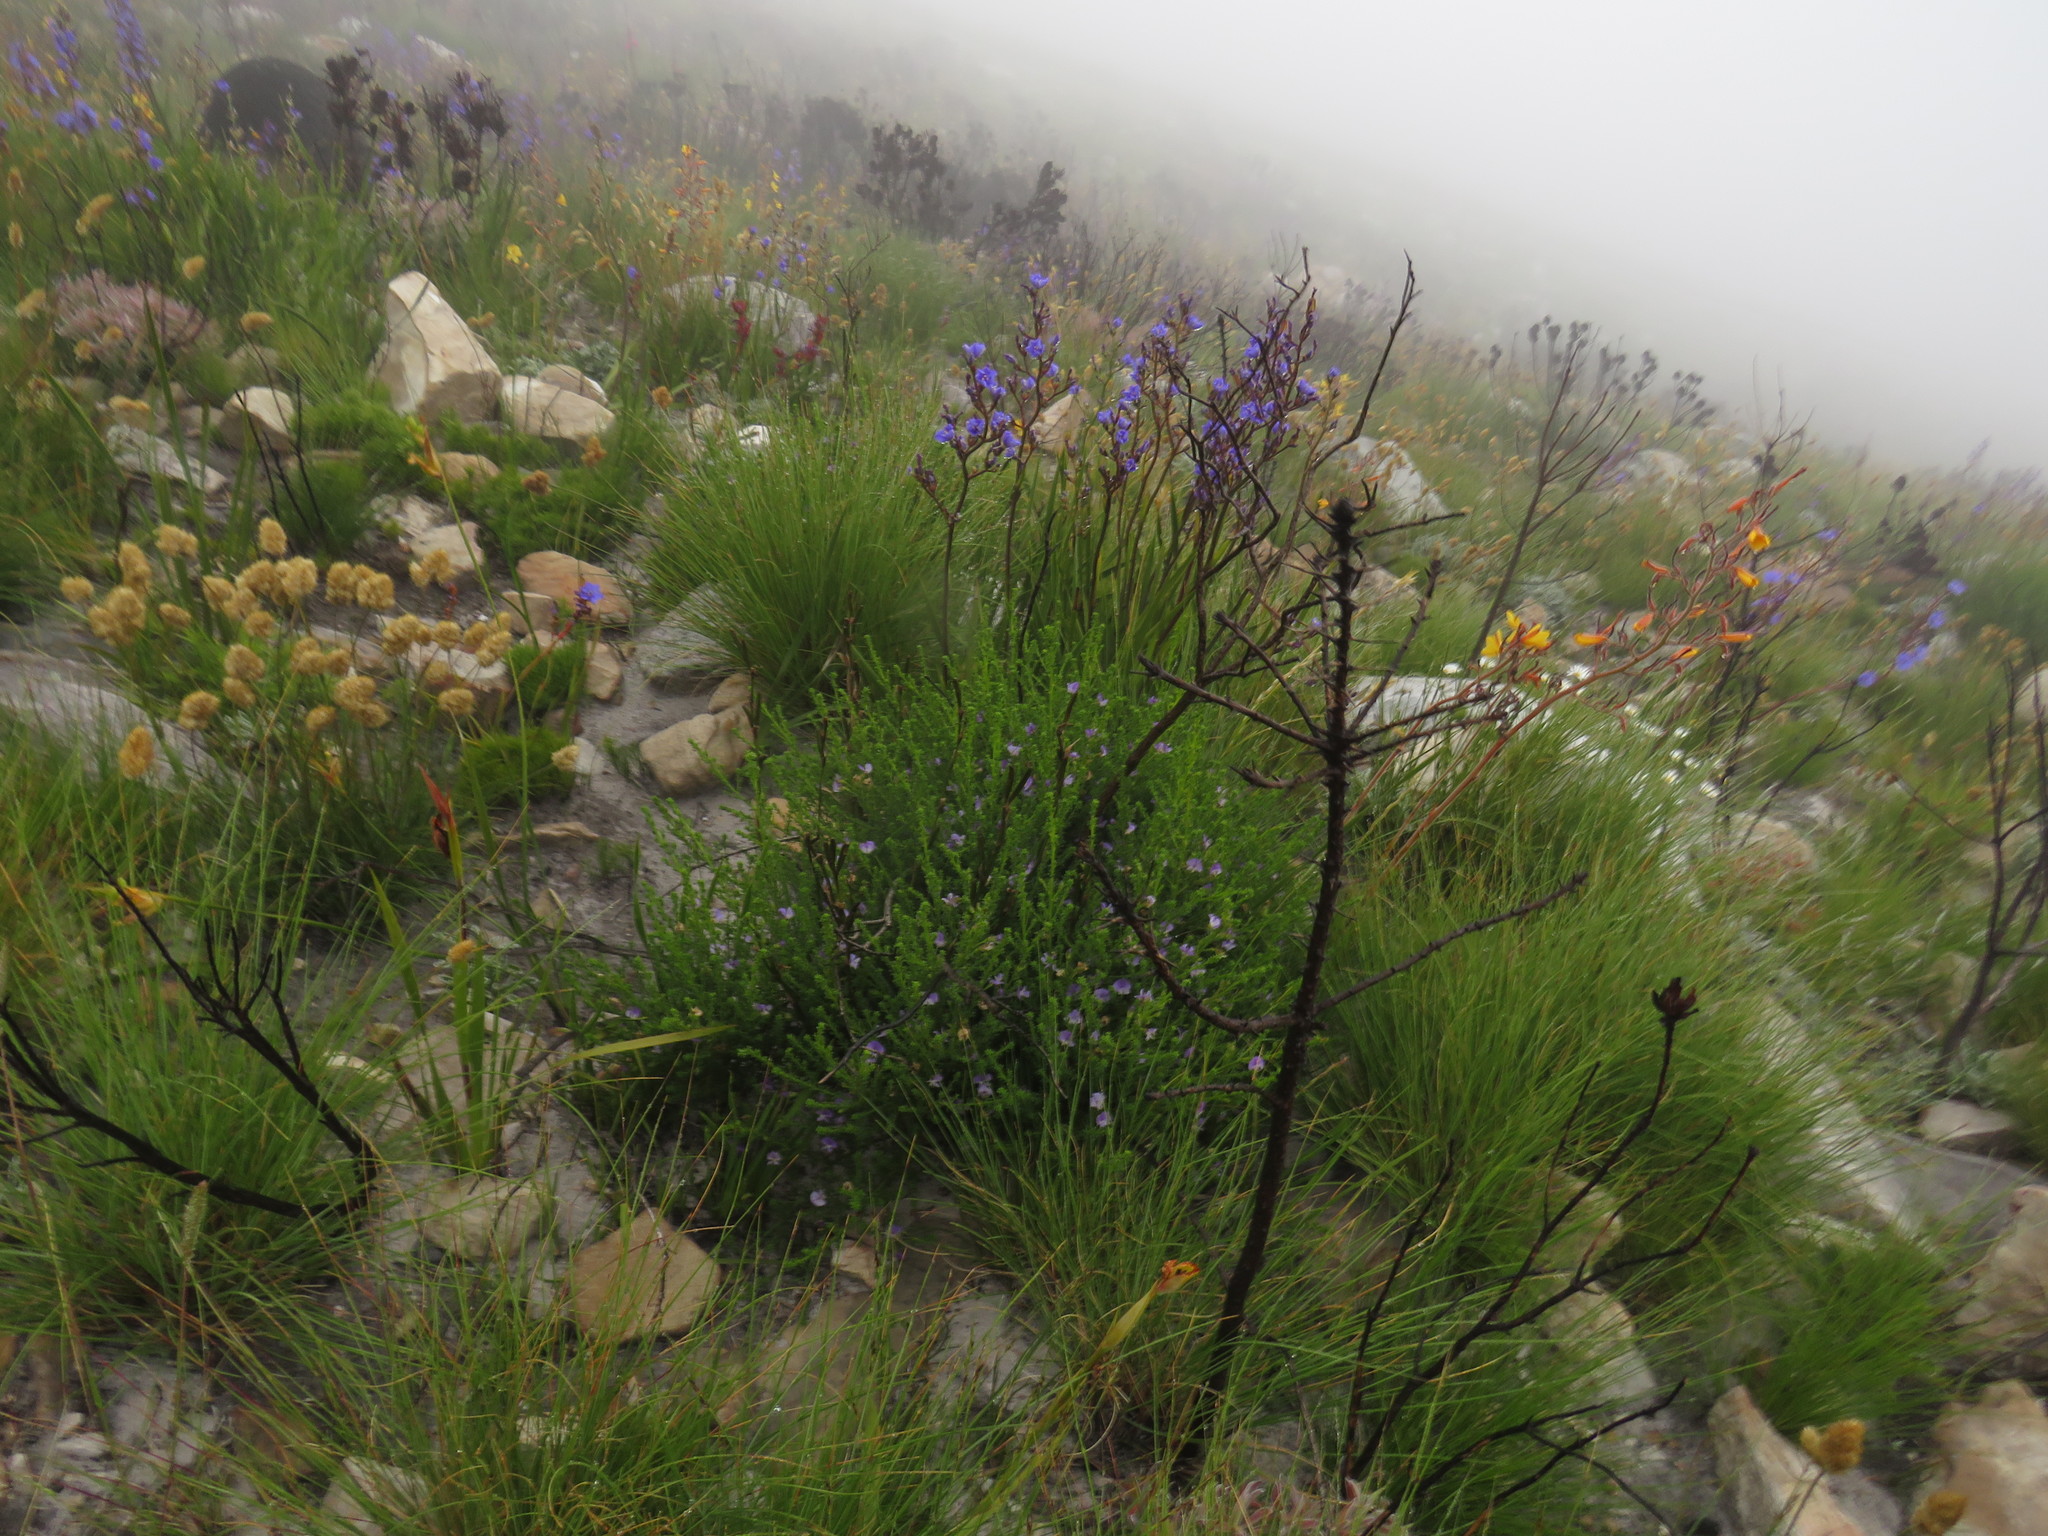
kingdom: Plantae
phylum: Tracheophyta
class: Magnoliopsida
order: Fabales
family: Fabaceae
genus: Psoralea
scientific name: Psoralea aculeata
